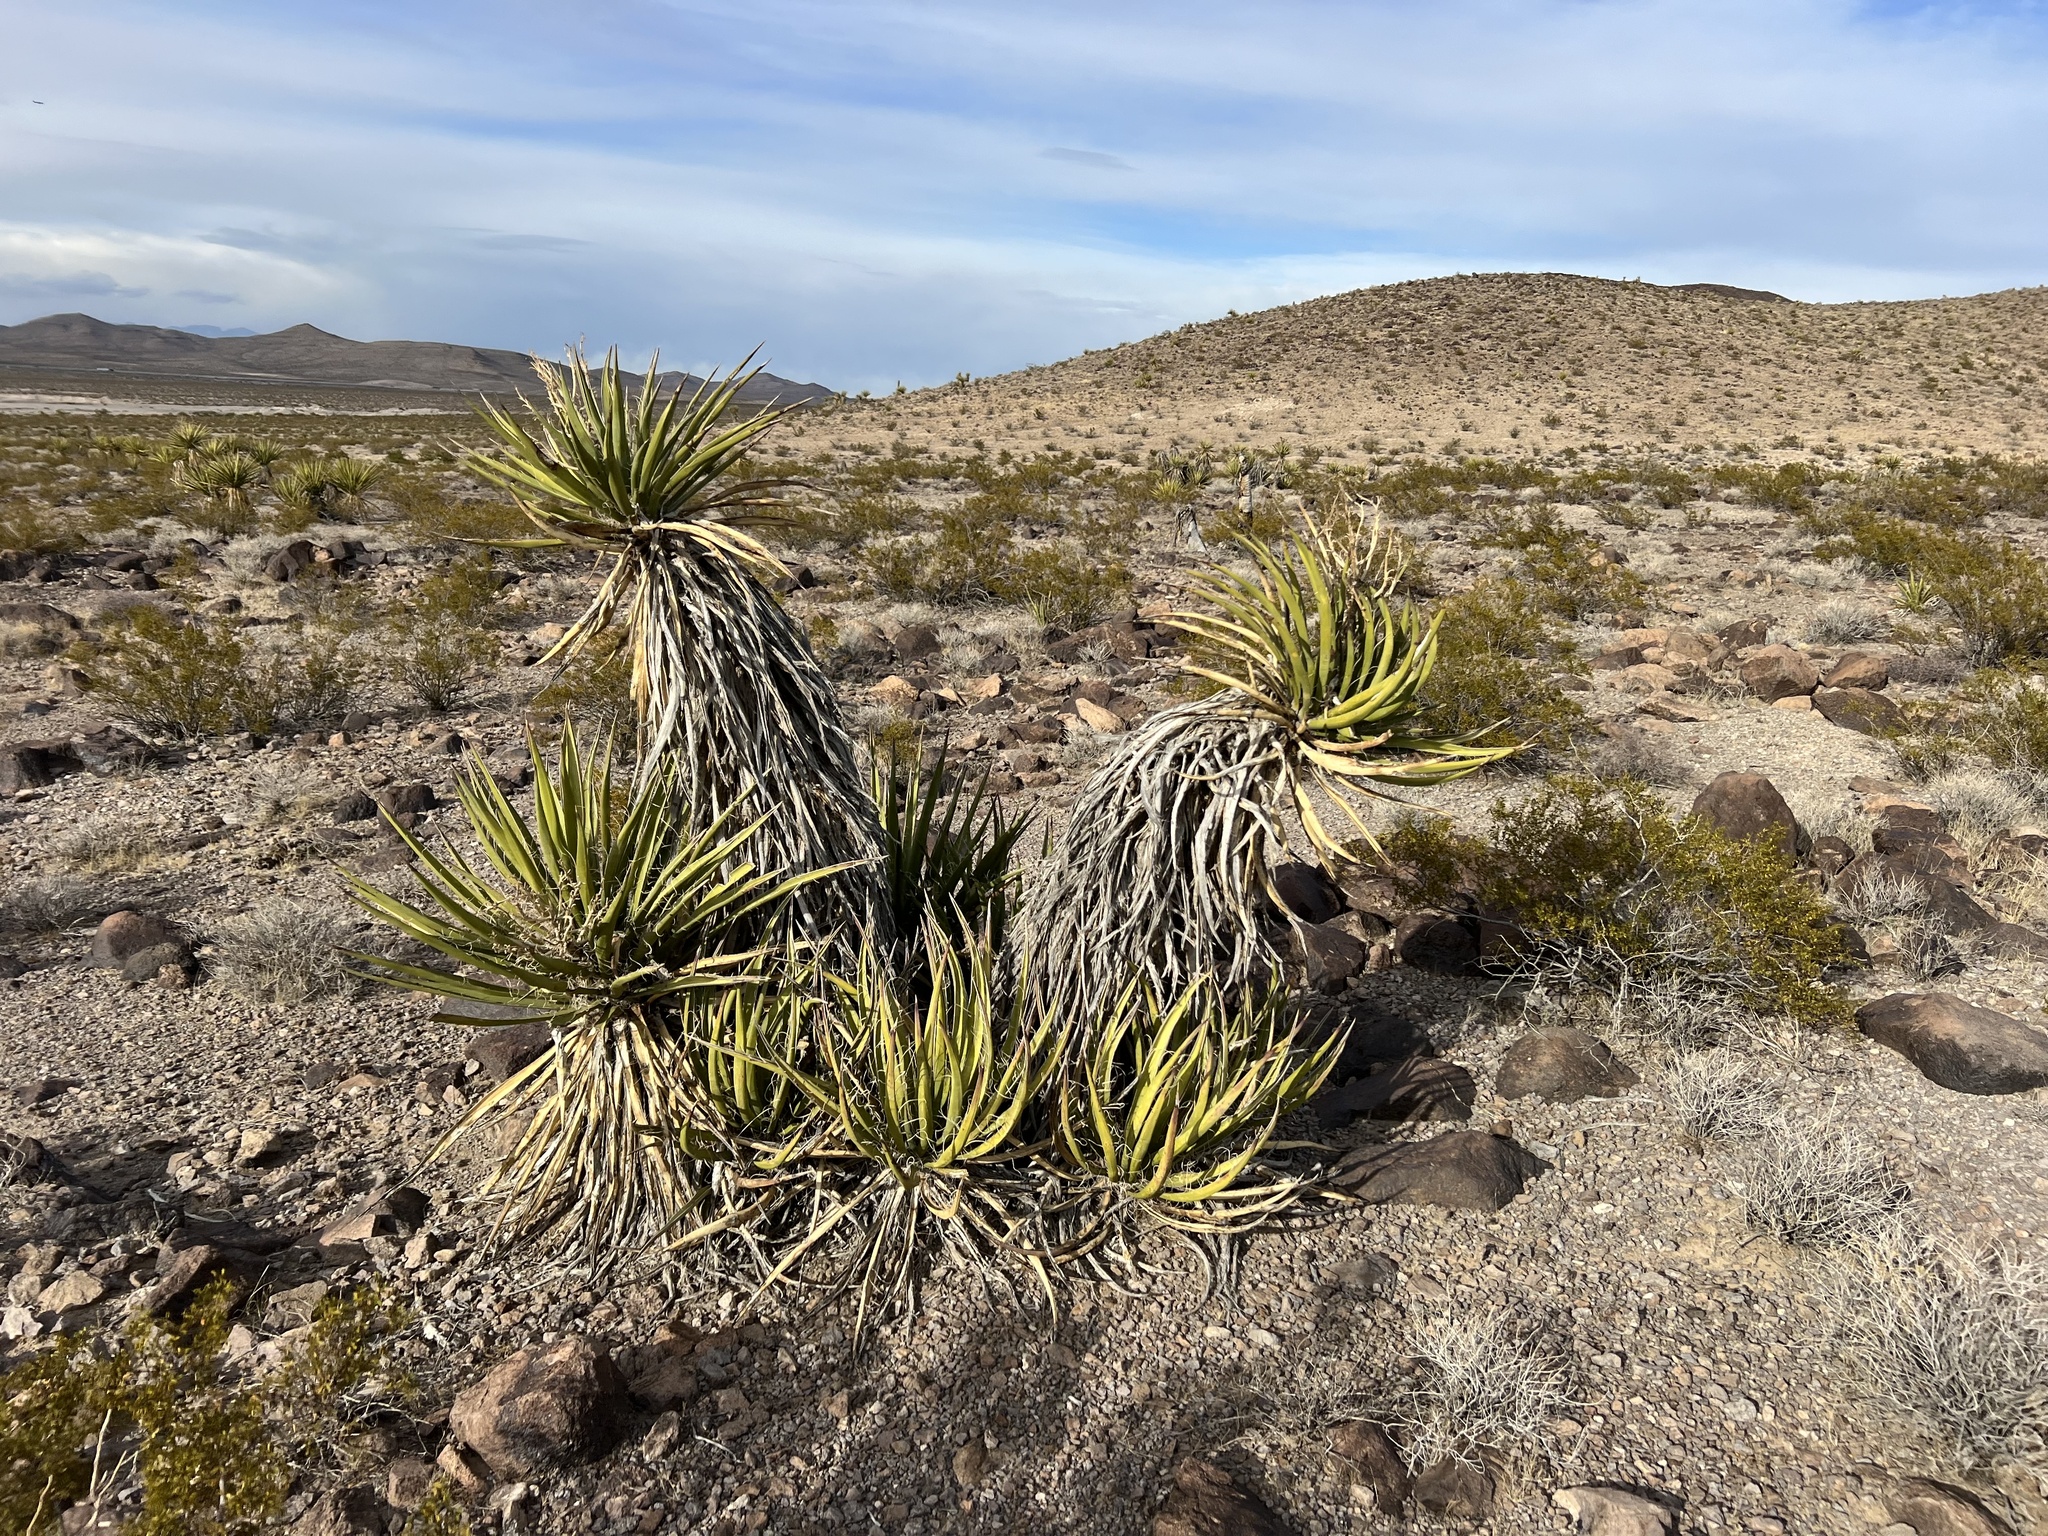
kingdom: Plantae
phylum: Tracheophyta
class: Liliopsida
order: Asparagales
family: Asparagaceae
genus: Yucca
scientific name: Yucca schidigera
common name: Mojave yucca
